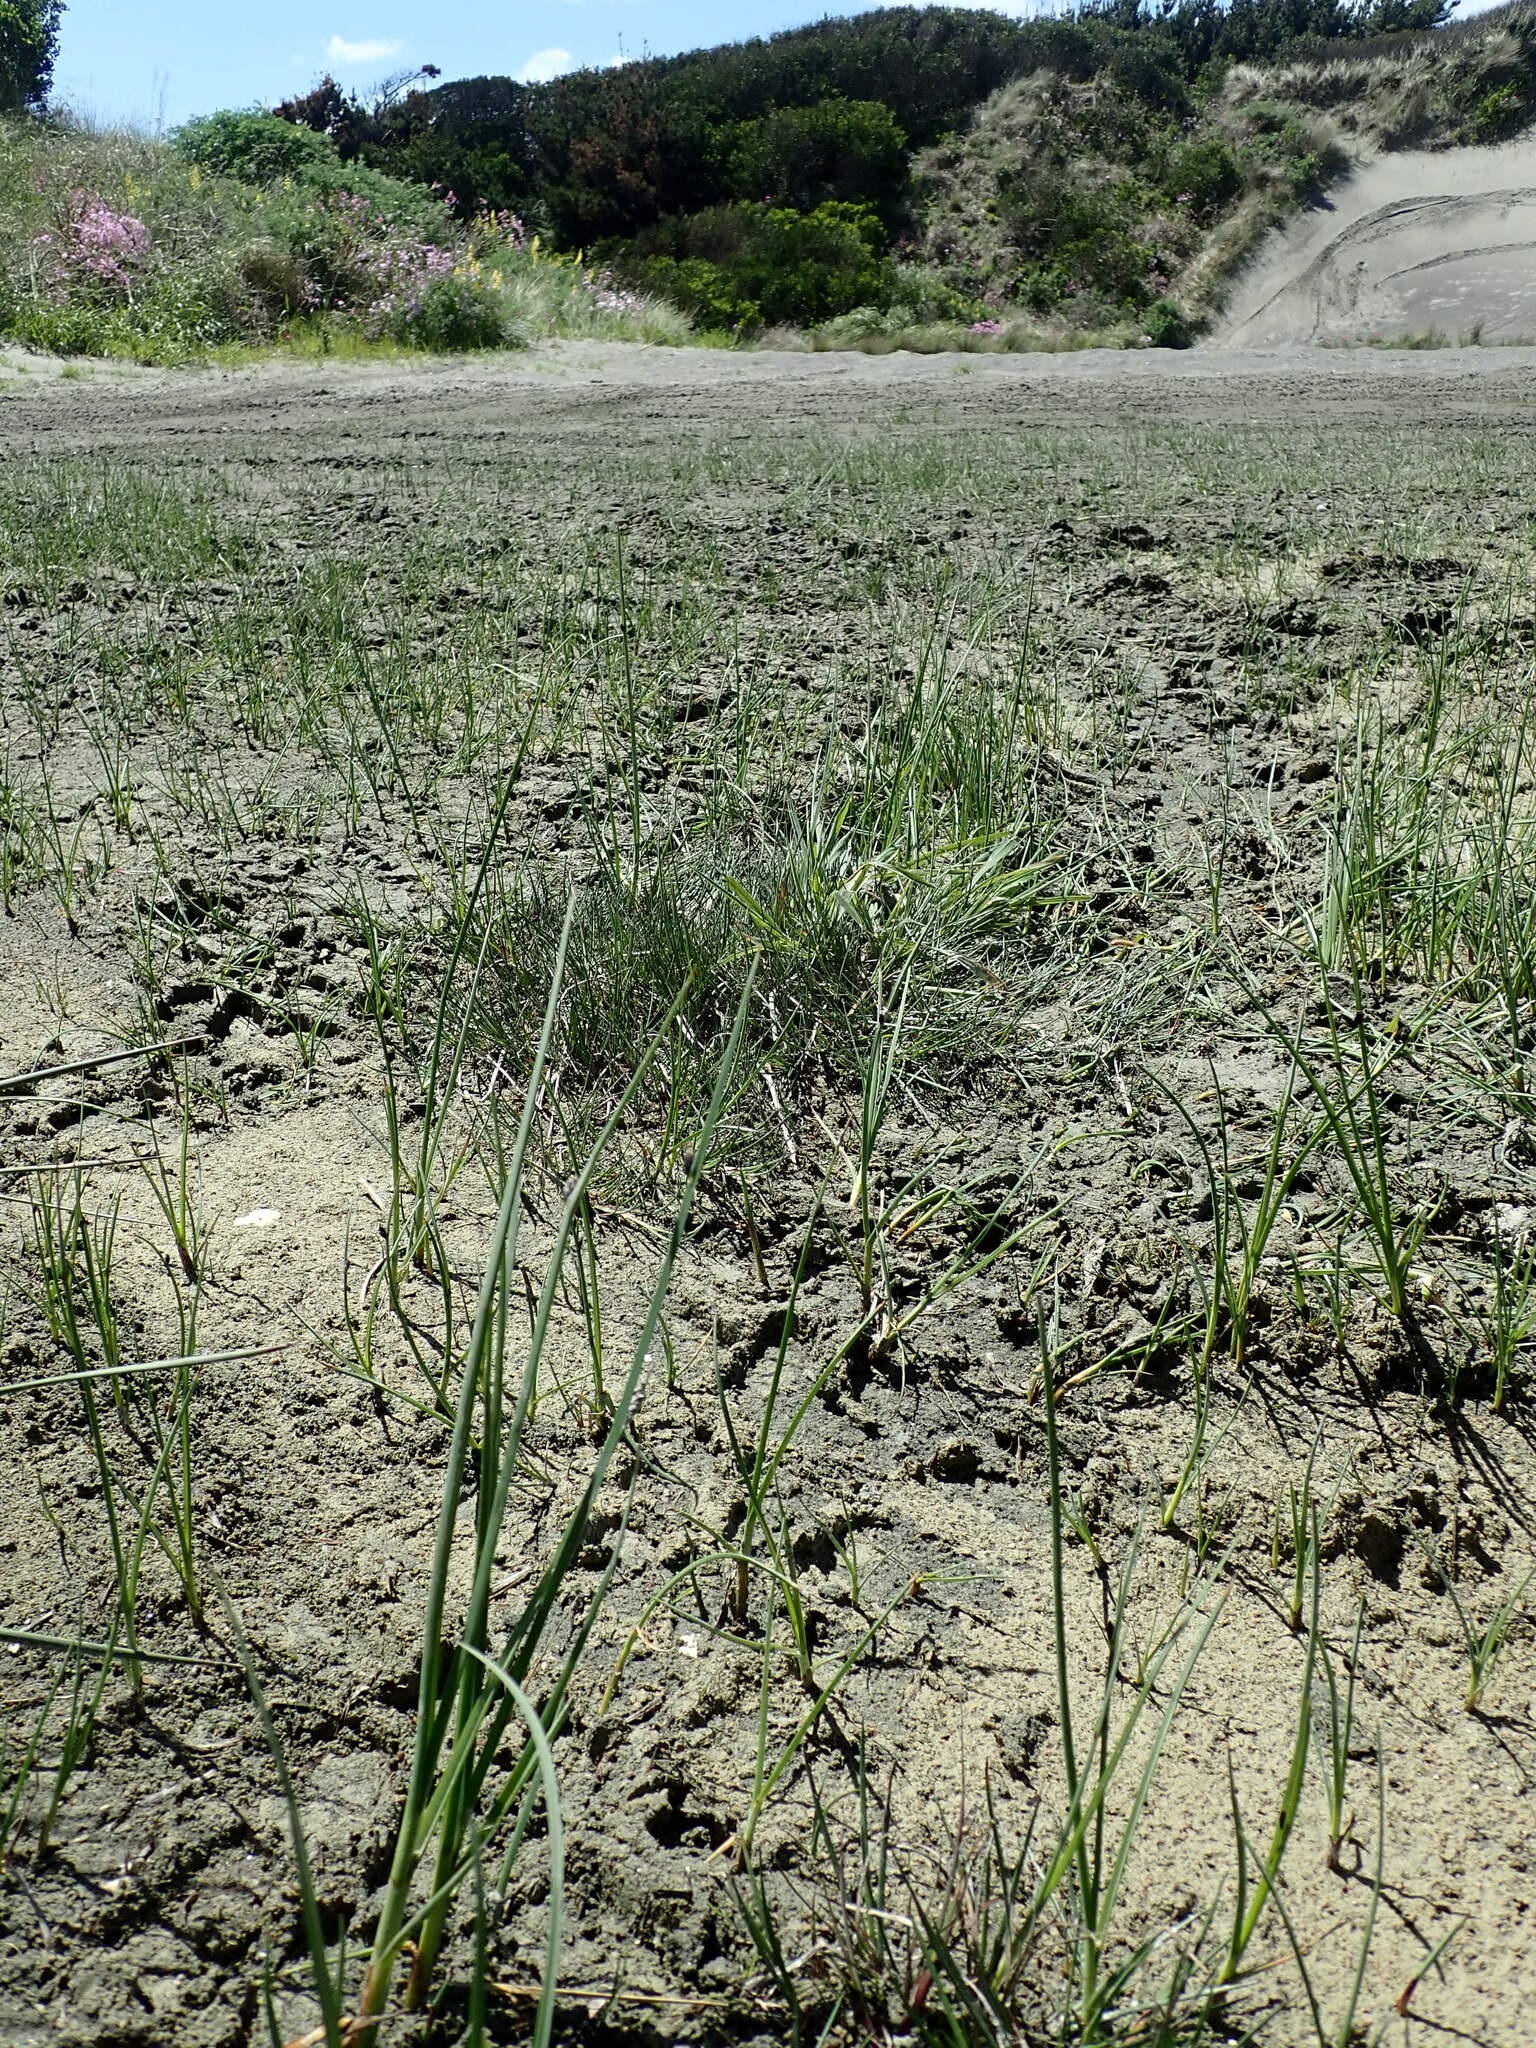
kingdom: Plantae
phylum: Tracheophyta
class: Liliopsida
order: Poales
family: Cyperaceae
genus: Schoenoplectus
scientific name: Schoenoplectus pungens
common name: Sharp club-rush
